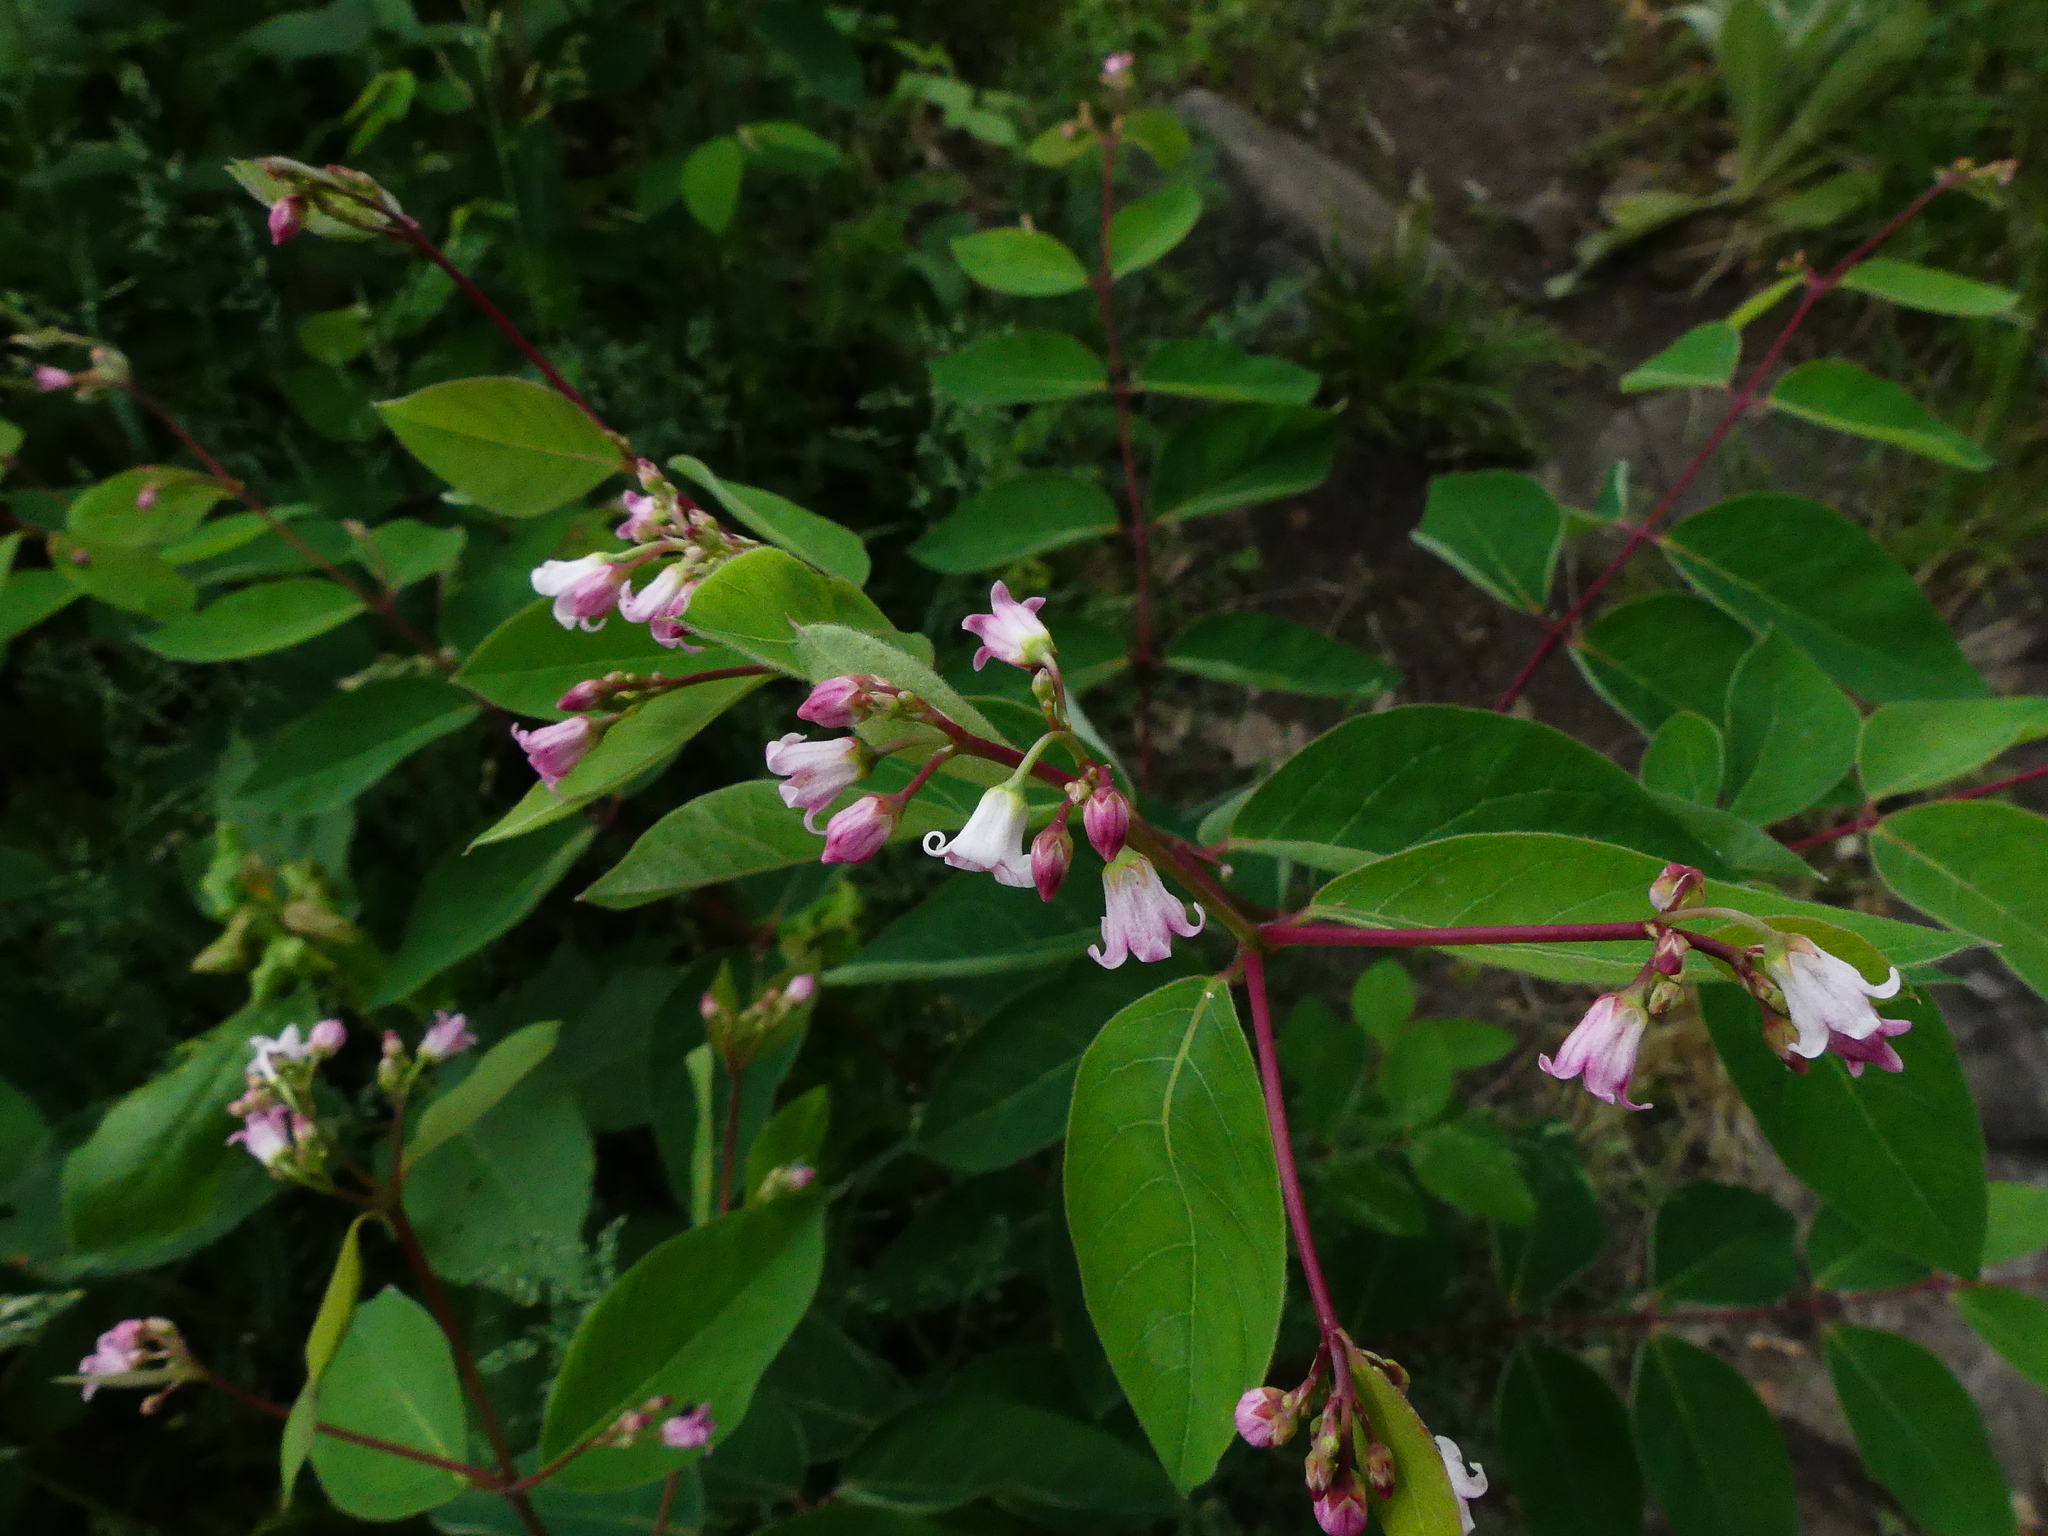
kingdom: Plantae
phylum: Tracheophyta
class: Magnoliopsida
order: Gentianales
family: Apocynaceae
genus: Apocynum
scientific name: Apocynum androsaemifolium
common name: Spreading dogbane
